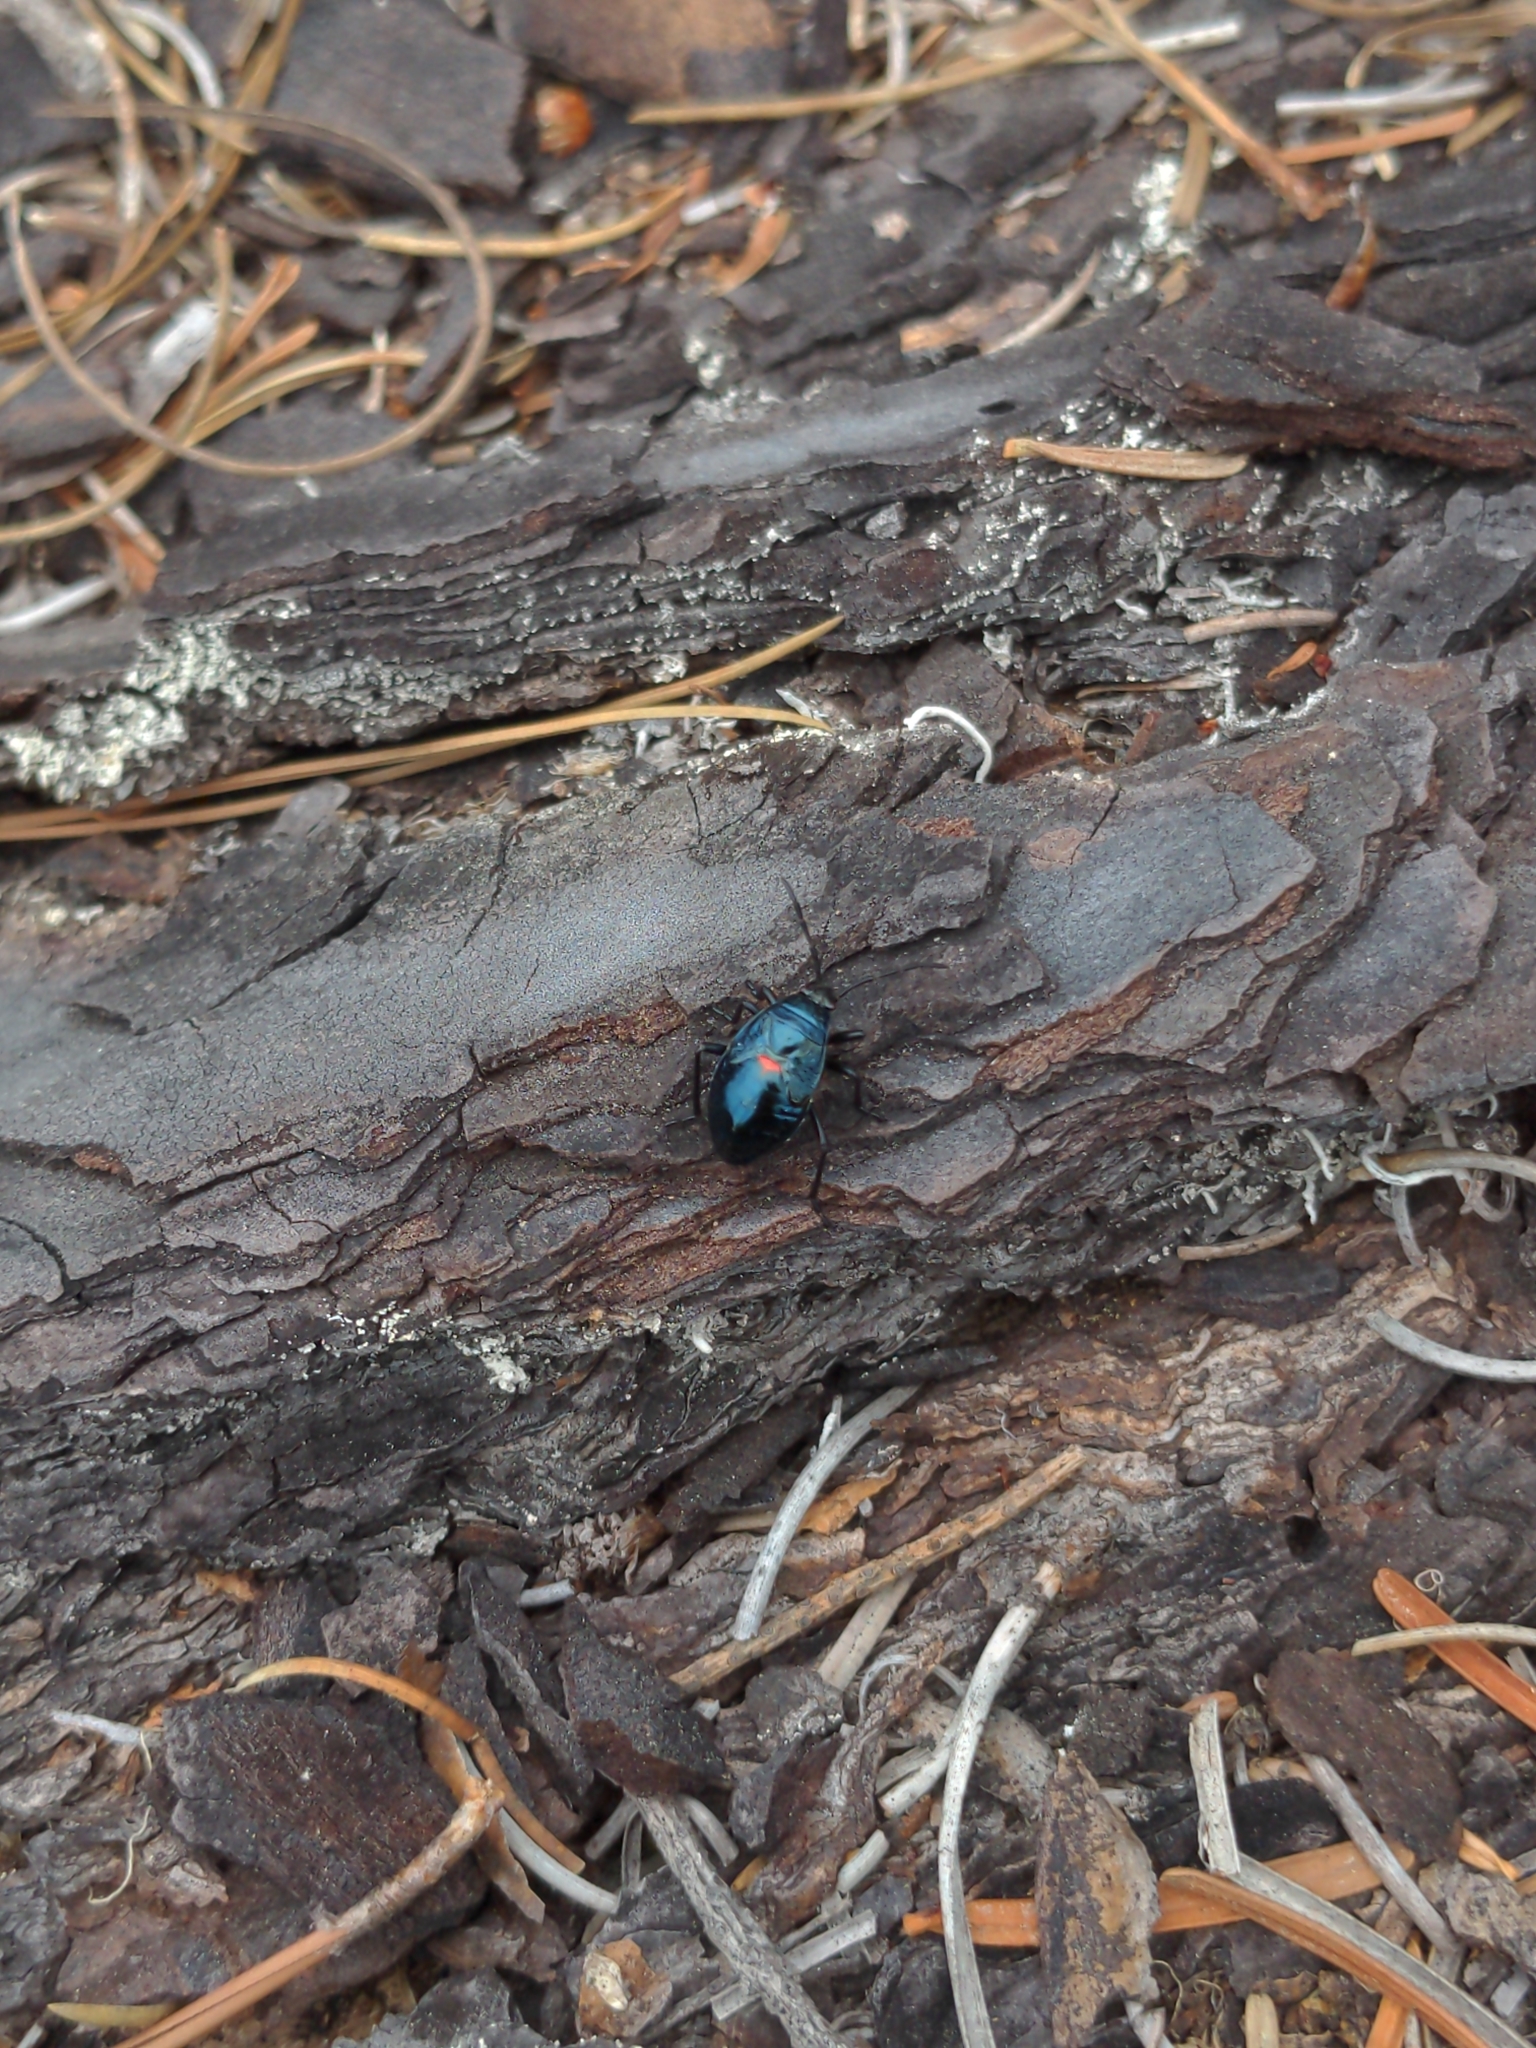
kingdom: Animalia
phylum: Arthropoda
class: Insecta
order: Hemiptera
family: Largidae
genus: Largus
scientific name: Largus californicus
